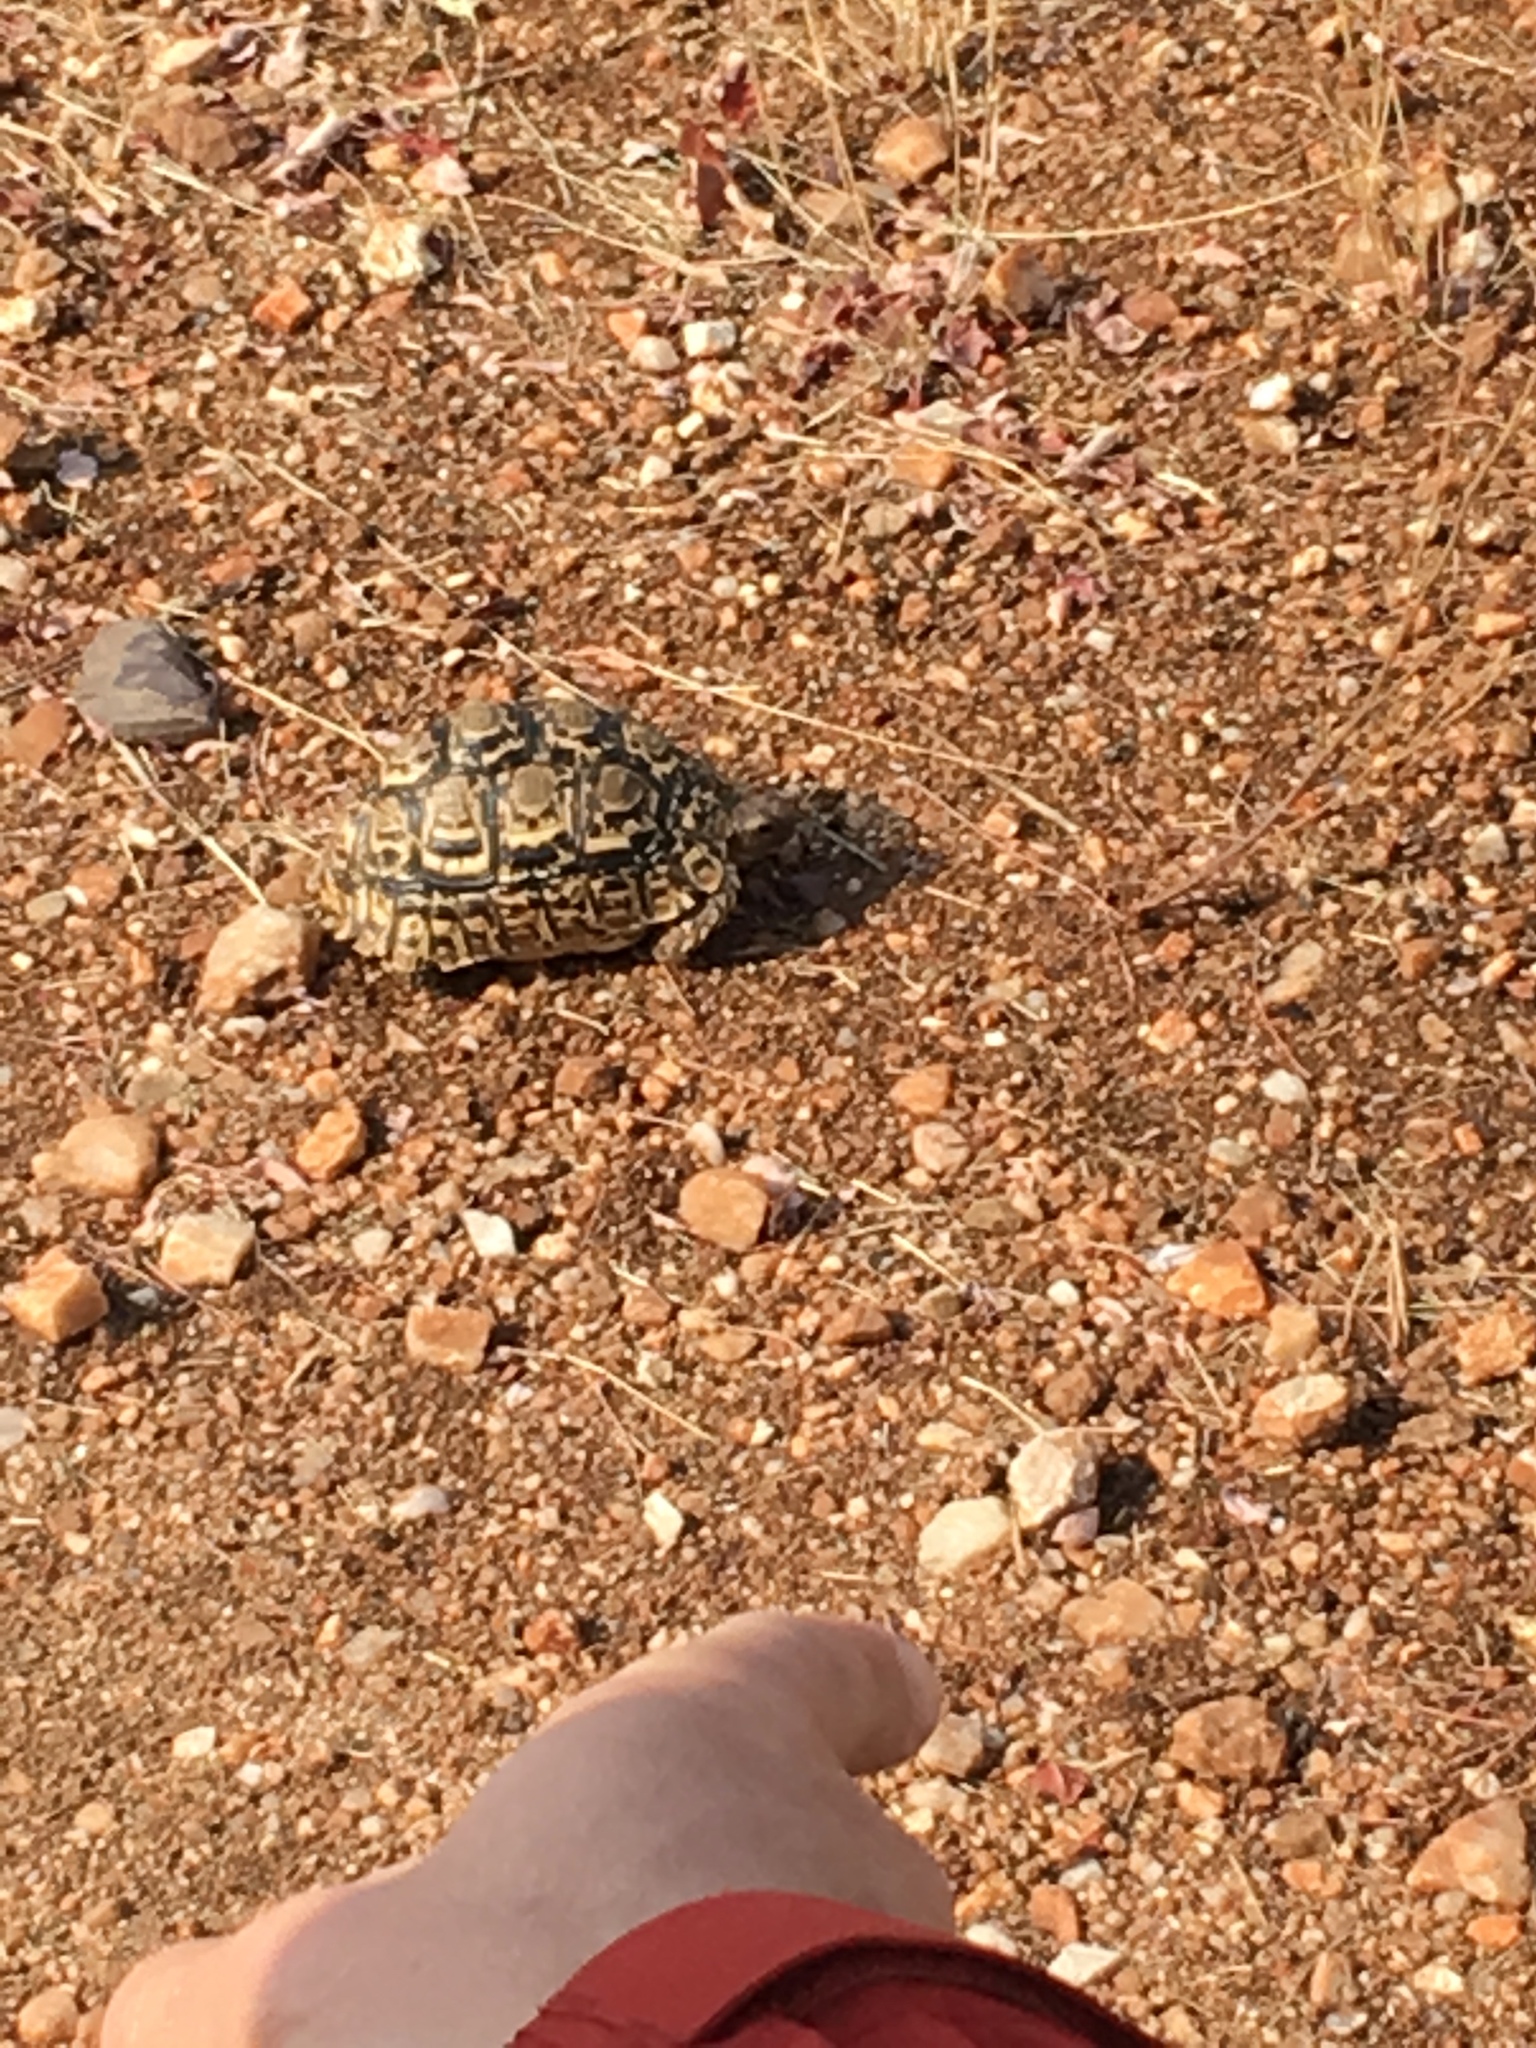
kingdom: Animalia
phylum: Chordata
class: Testudines
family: Testudinidae
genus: Stigmochelys
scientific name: Stigmochelys pardalis
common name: Leopard tortoise
